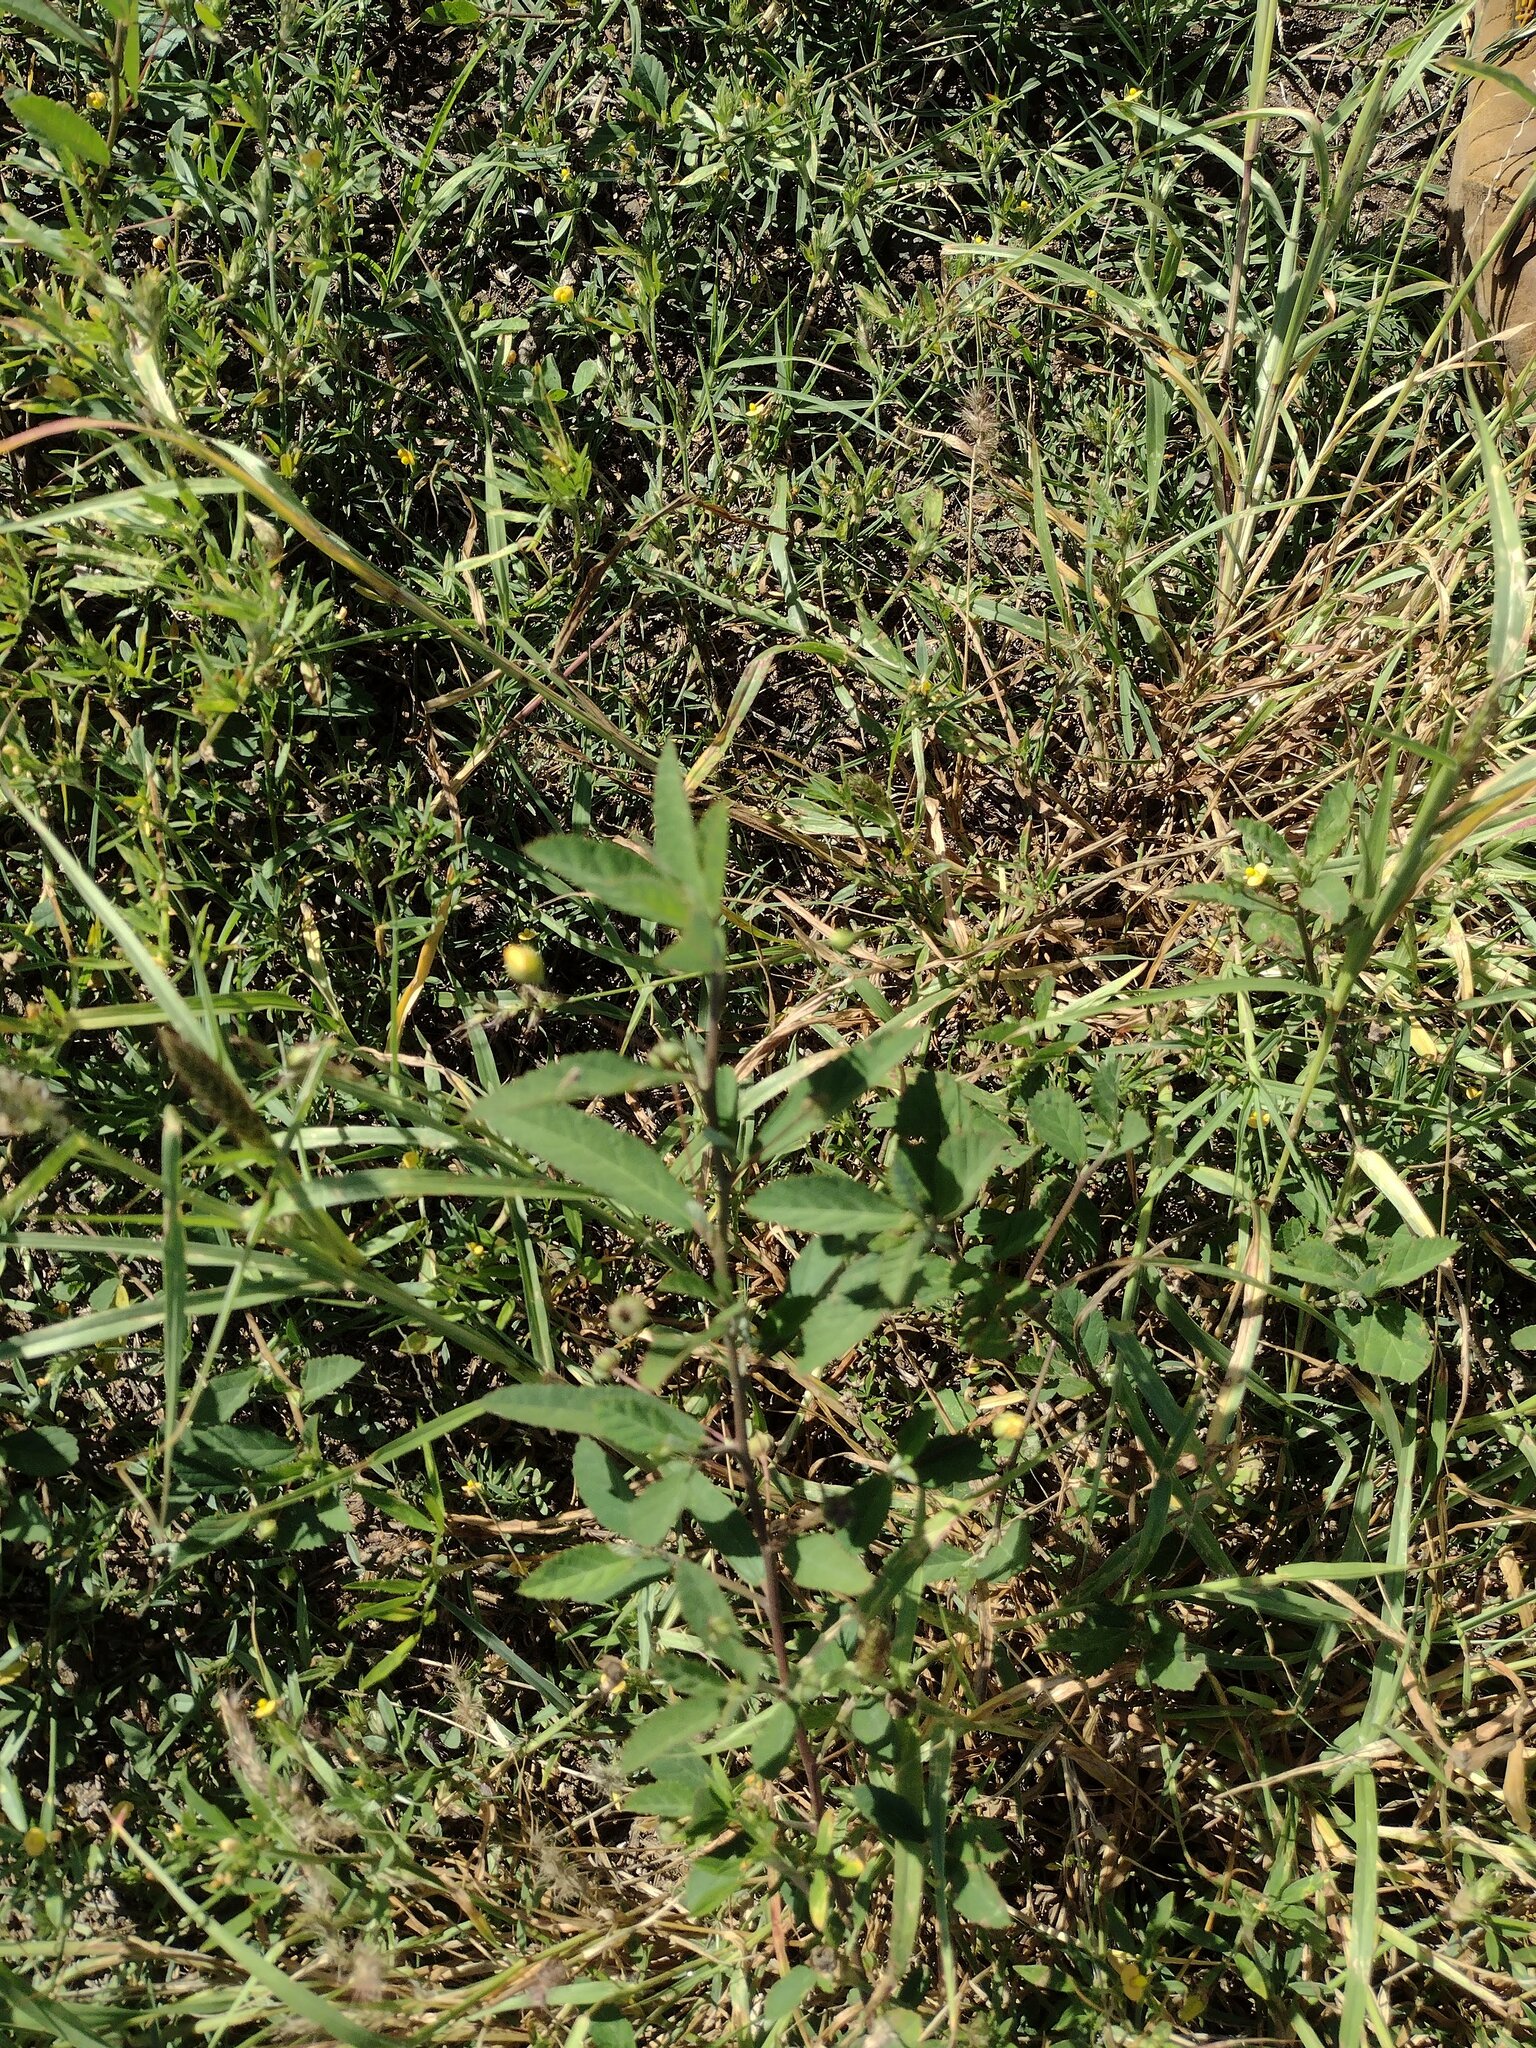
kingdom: Plantae
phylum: Tracheophyta
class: Magnoliopsida
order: Malvales
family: Malvaceae
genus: Sida
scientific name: Sida rhombifolia
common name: Queensland-hemp
